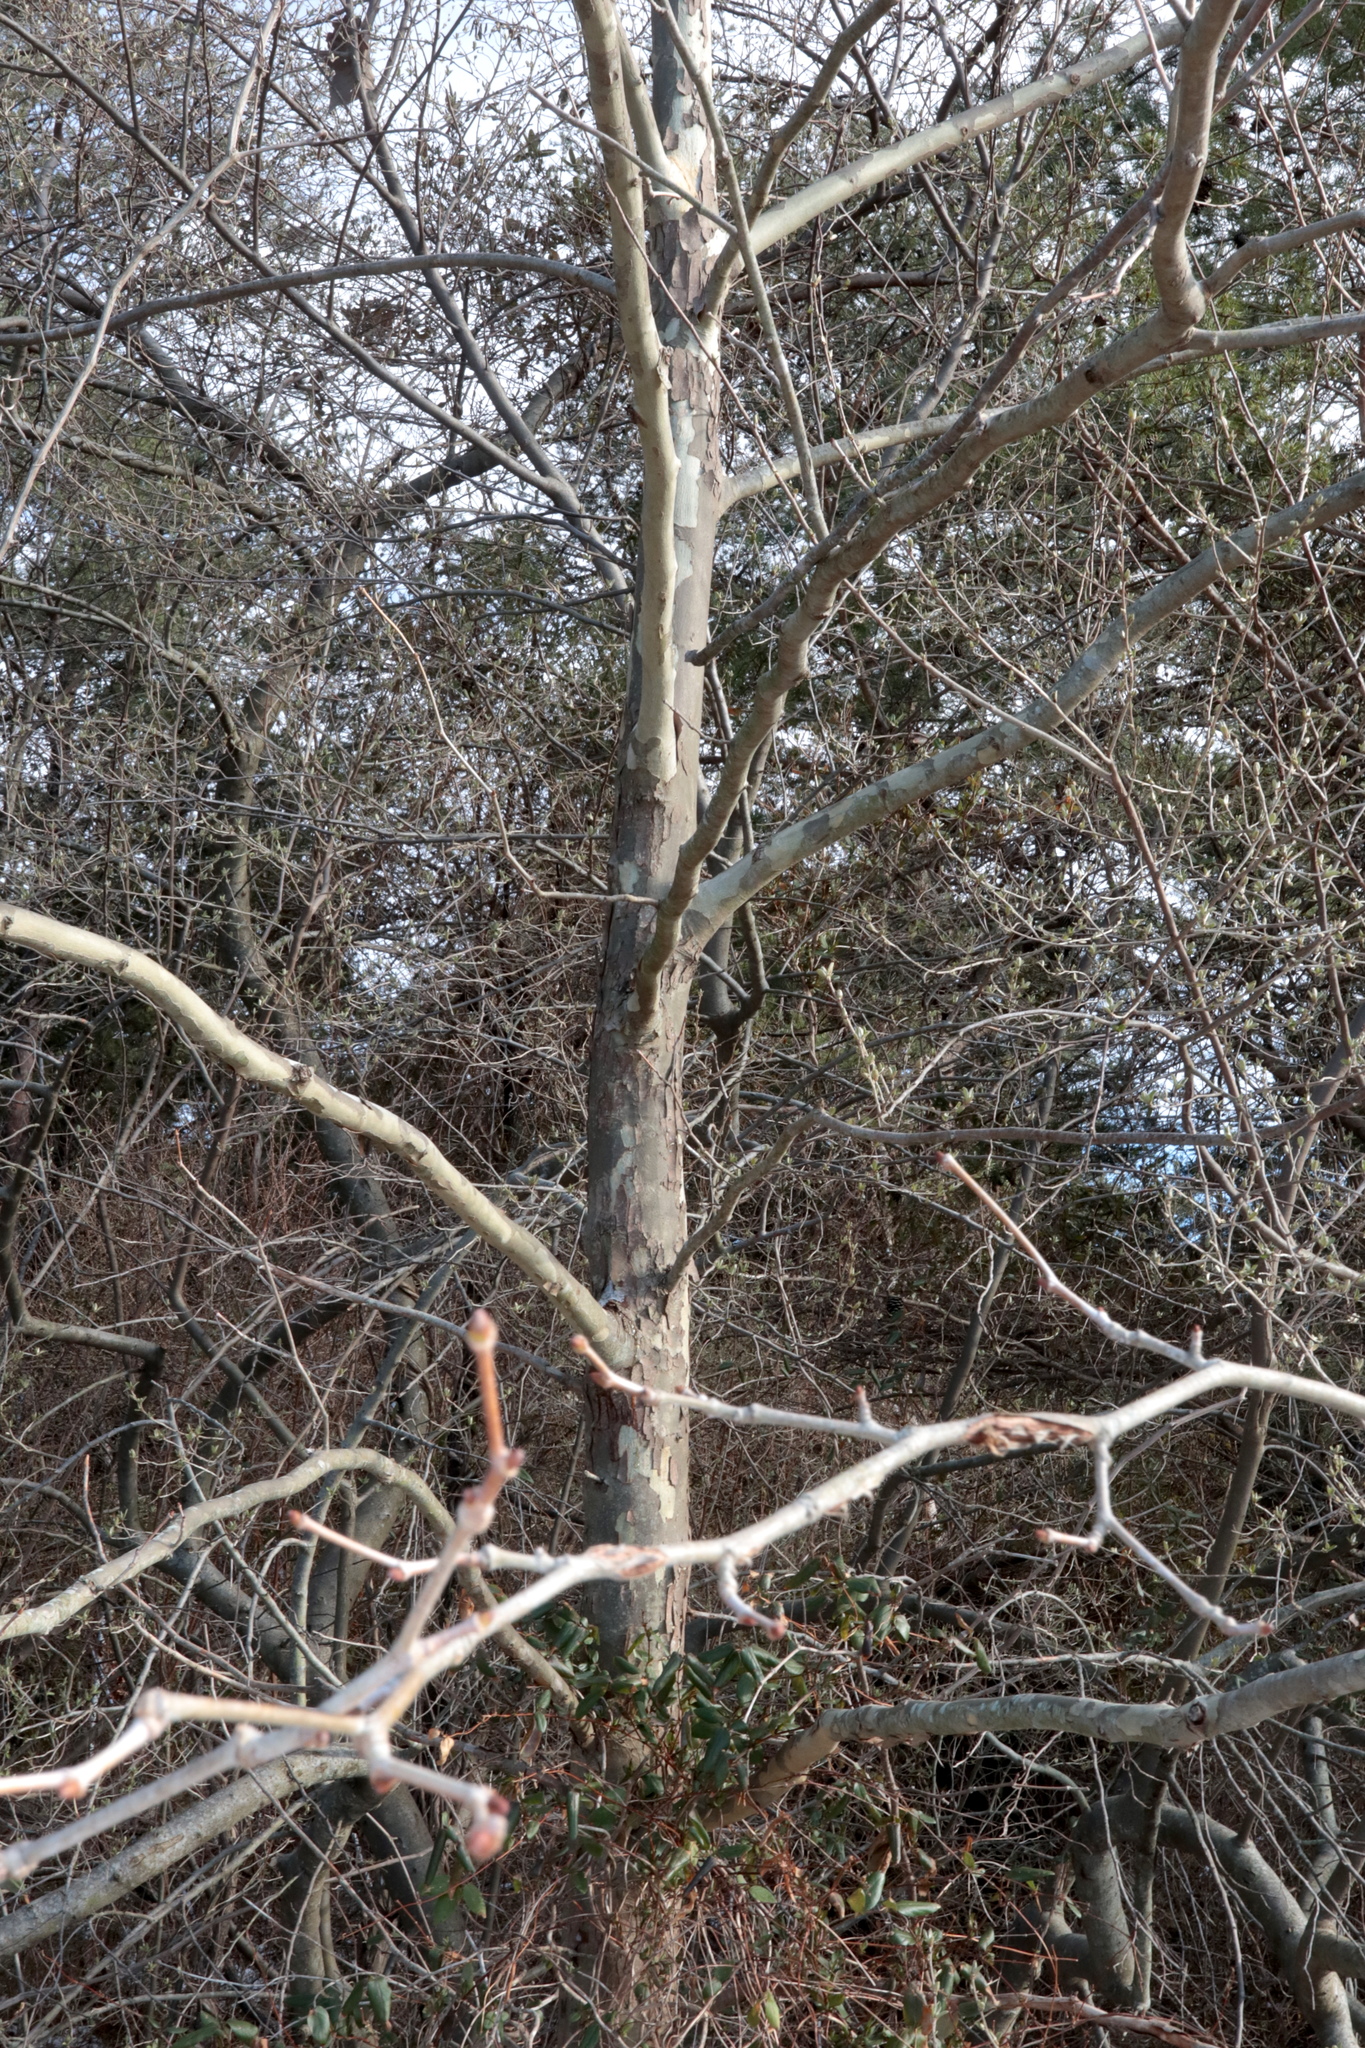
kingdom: Plantae
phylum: Tracheophyta
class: Magnoliopsida
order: Proteales
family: Platanaceae
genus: Platanus
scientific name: Platanus occidentalis
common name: American sycamore
